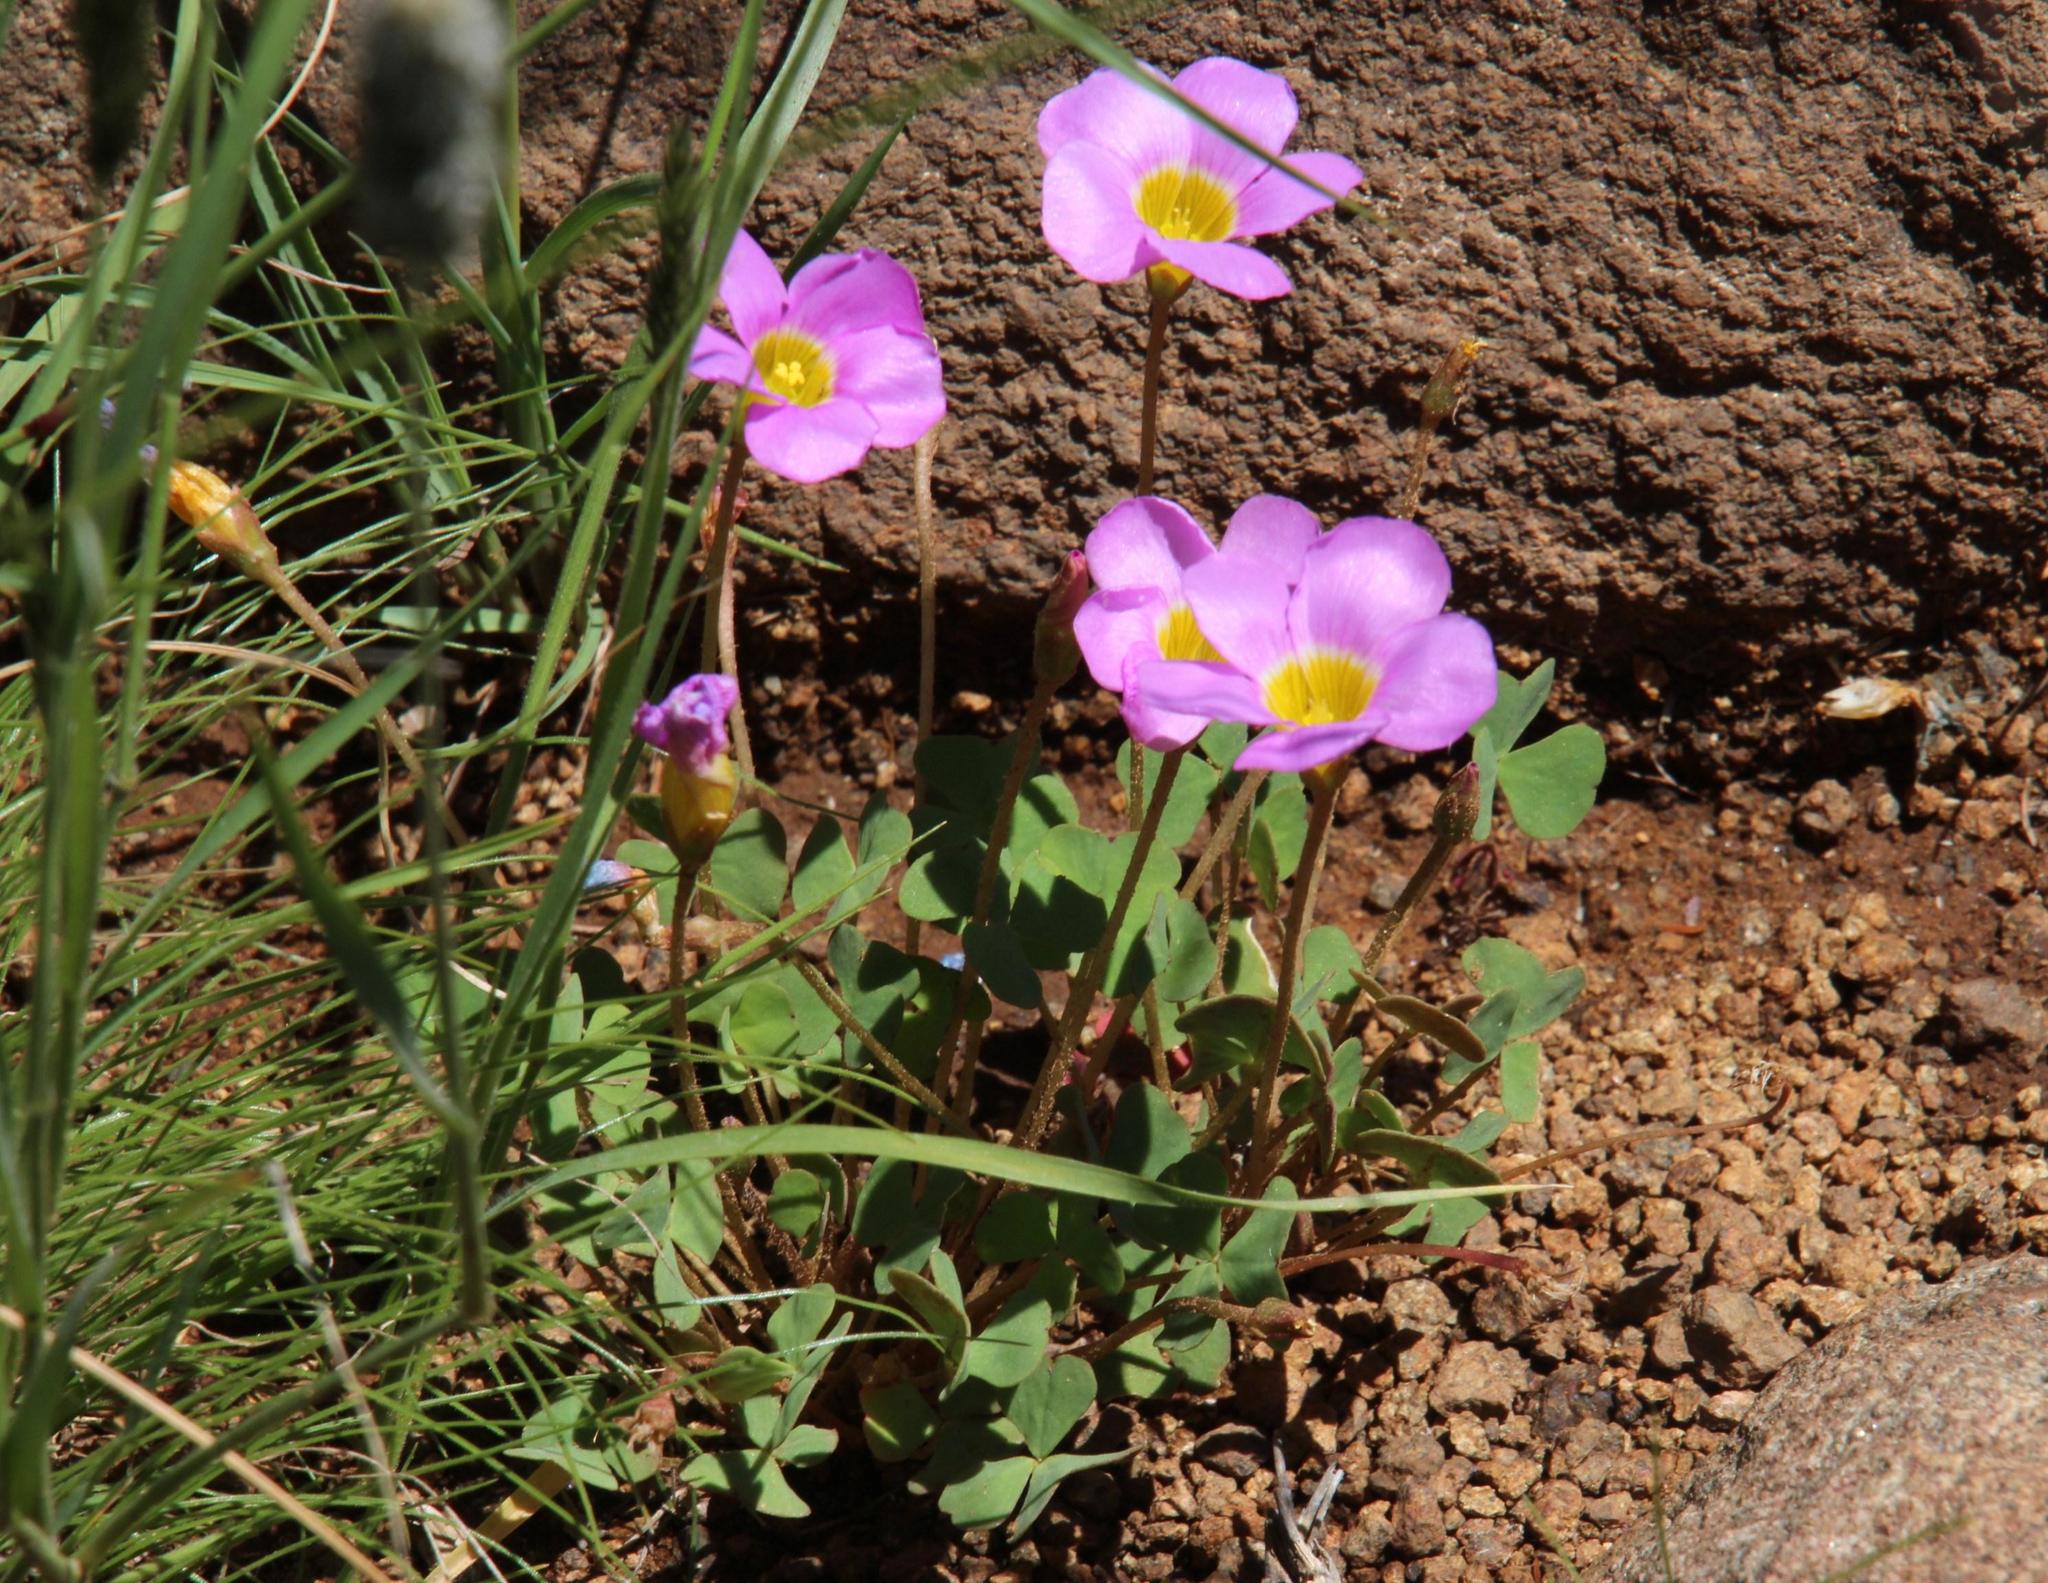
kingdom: Plantae
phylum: Tracheophyta
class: Magnoliopsida
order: Oxalidales
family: Oxalidaceae
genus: Oxalis
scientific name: Oxalis obliquifolia
